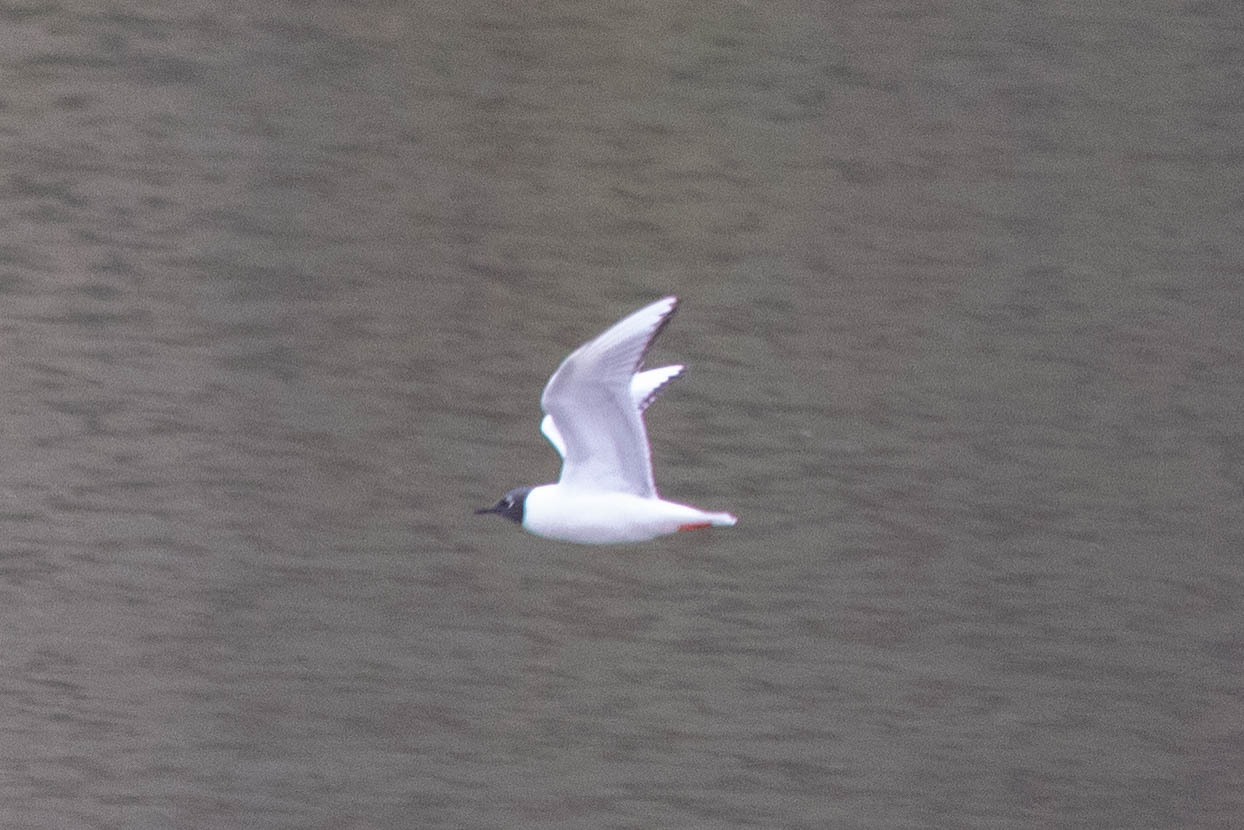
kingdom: Animalia
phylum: Chordata
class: Aves
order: Charadriiformes
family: Laridae
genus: Chroicocephalus
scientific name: Chroicocephalus philadelphia
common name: Bonaparte's gull
